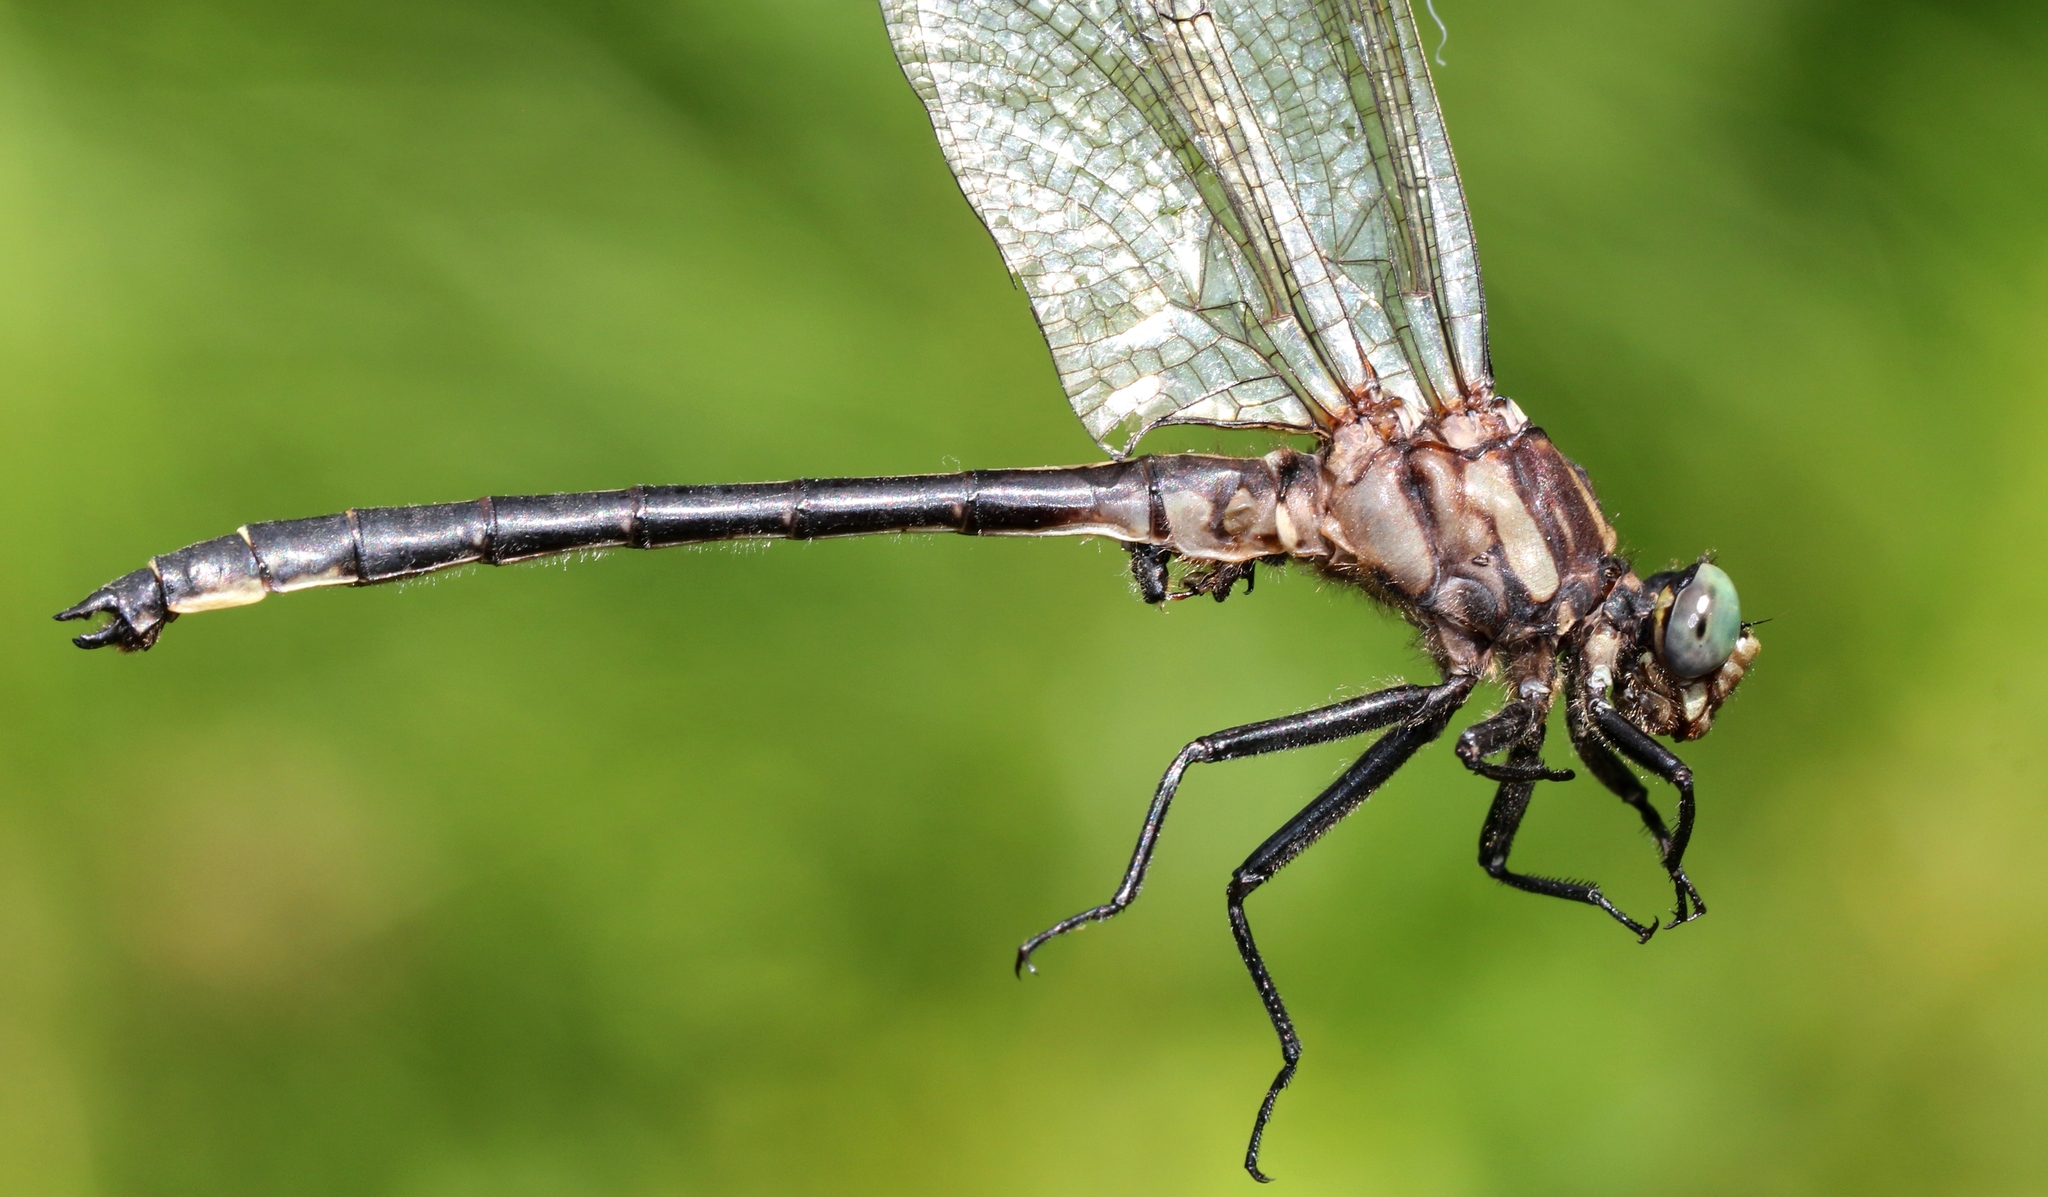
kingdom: Animalia
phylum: Arthropoda
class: Insecta
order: Odonata
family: Gomphidae
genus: Phanogomphus
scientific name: Phanogomphus descriptus
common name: Harpoon clubtail
